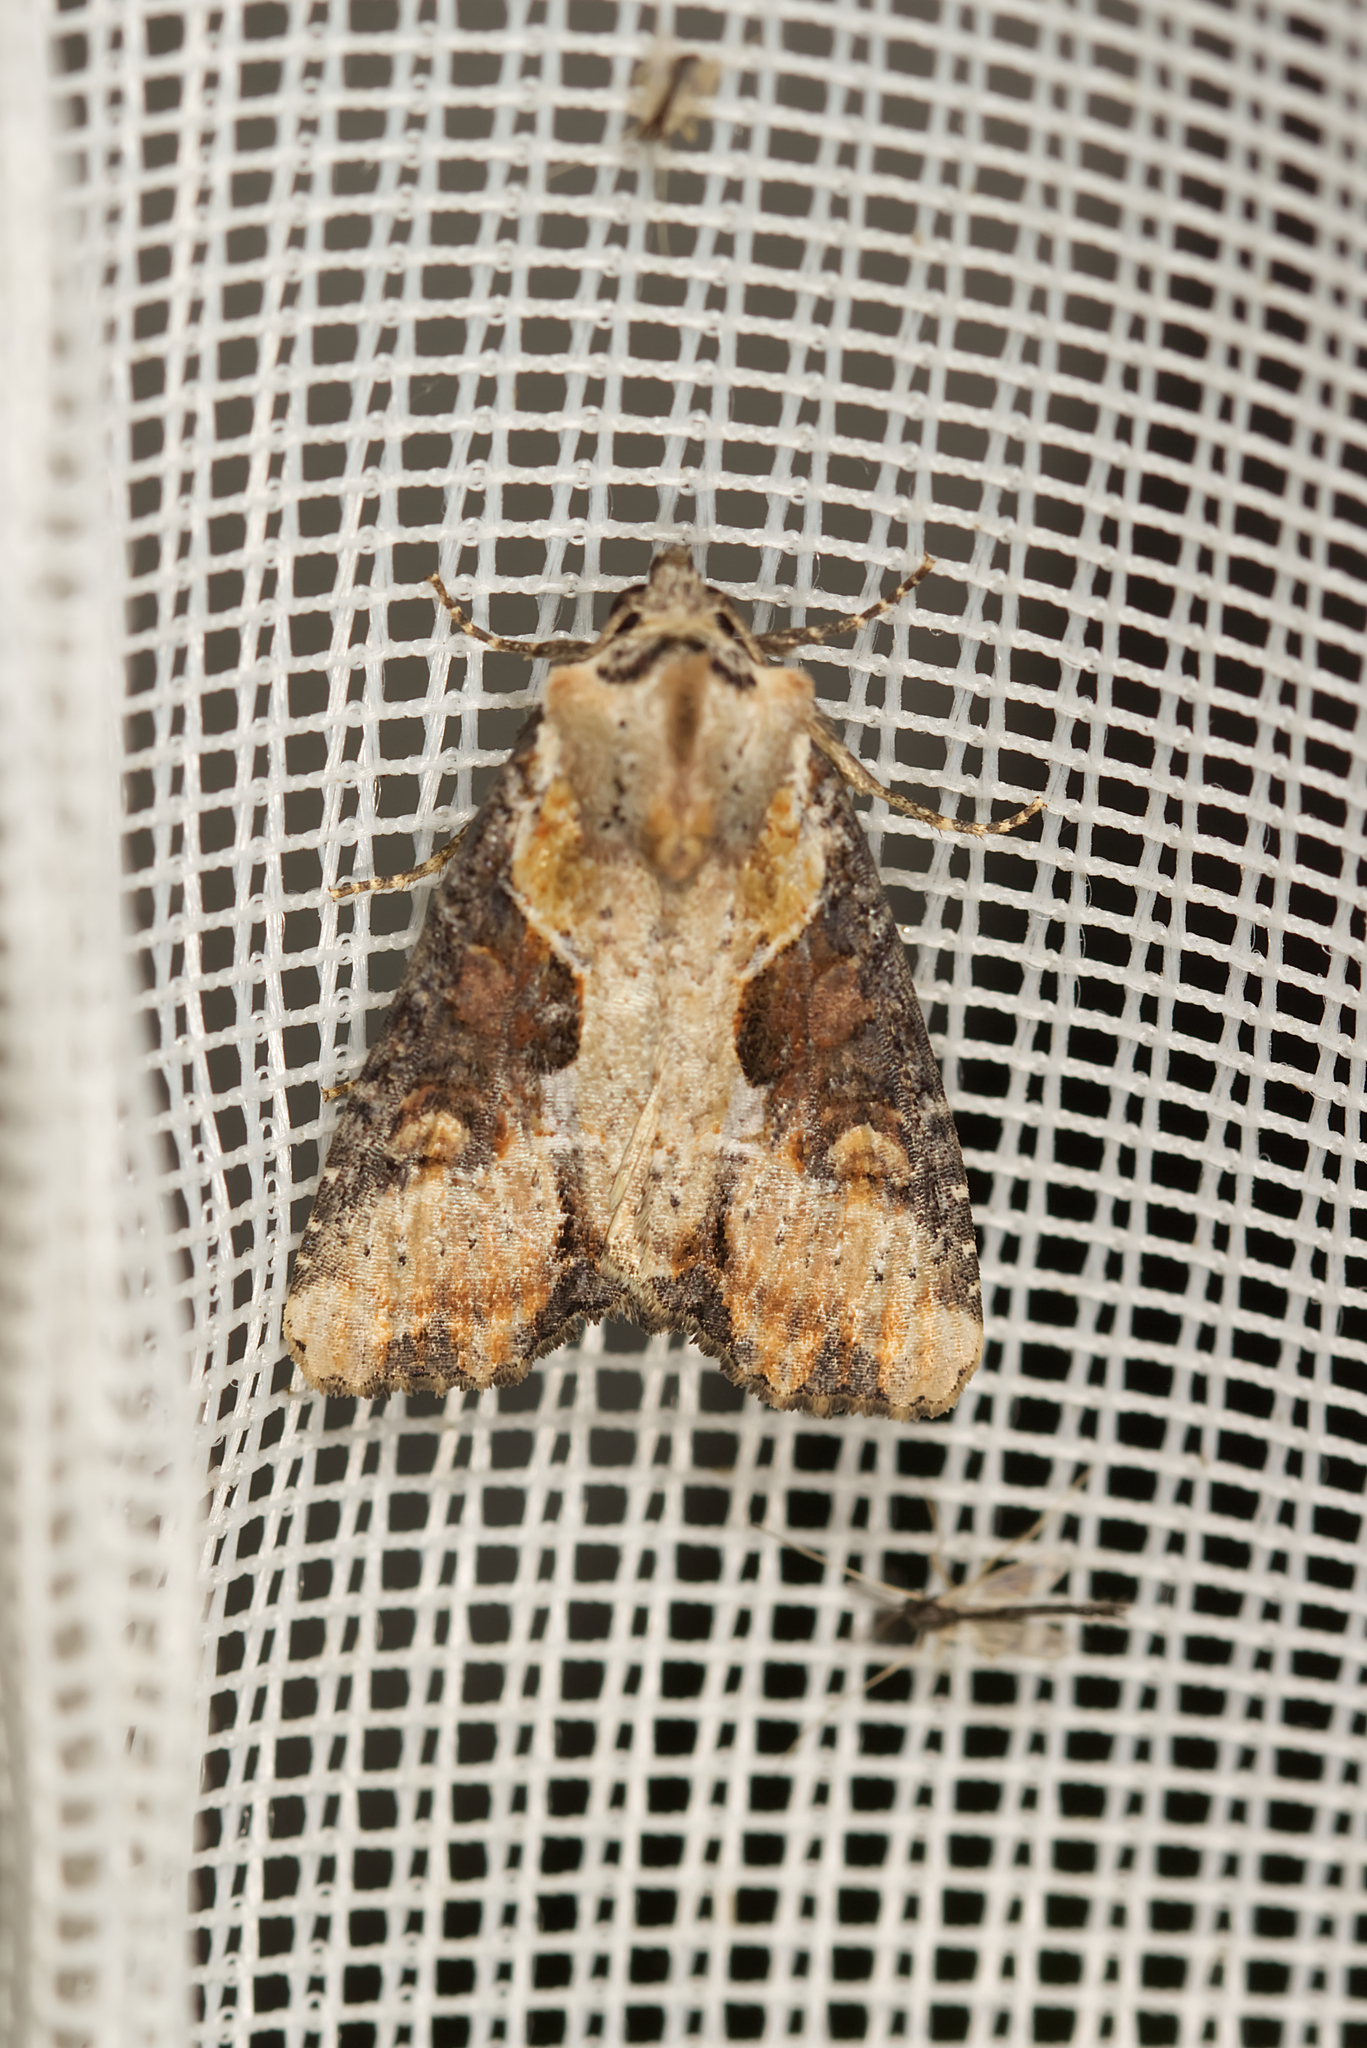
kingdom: Animalia
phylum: Arthropoda
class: Insecta
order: Lepidoptera
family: Noctuidae
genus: Lateroligia
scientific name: Lateroligia ophiogramma
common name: Double lobed
